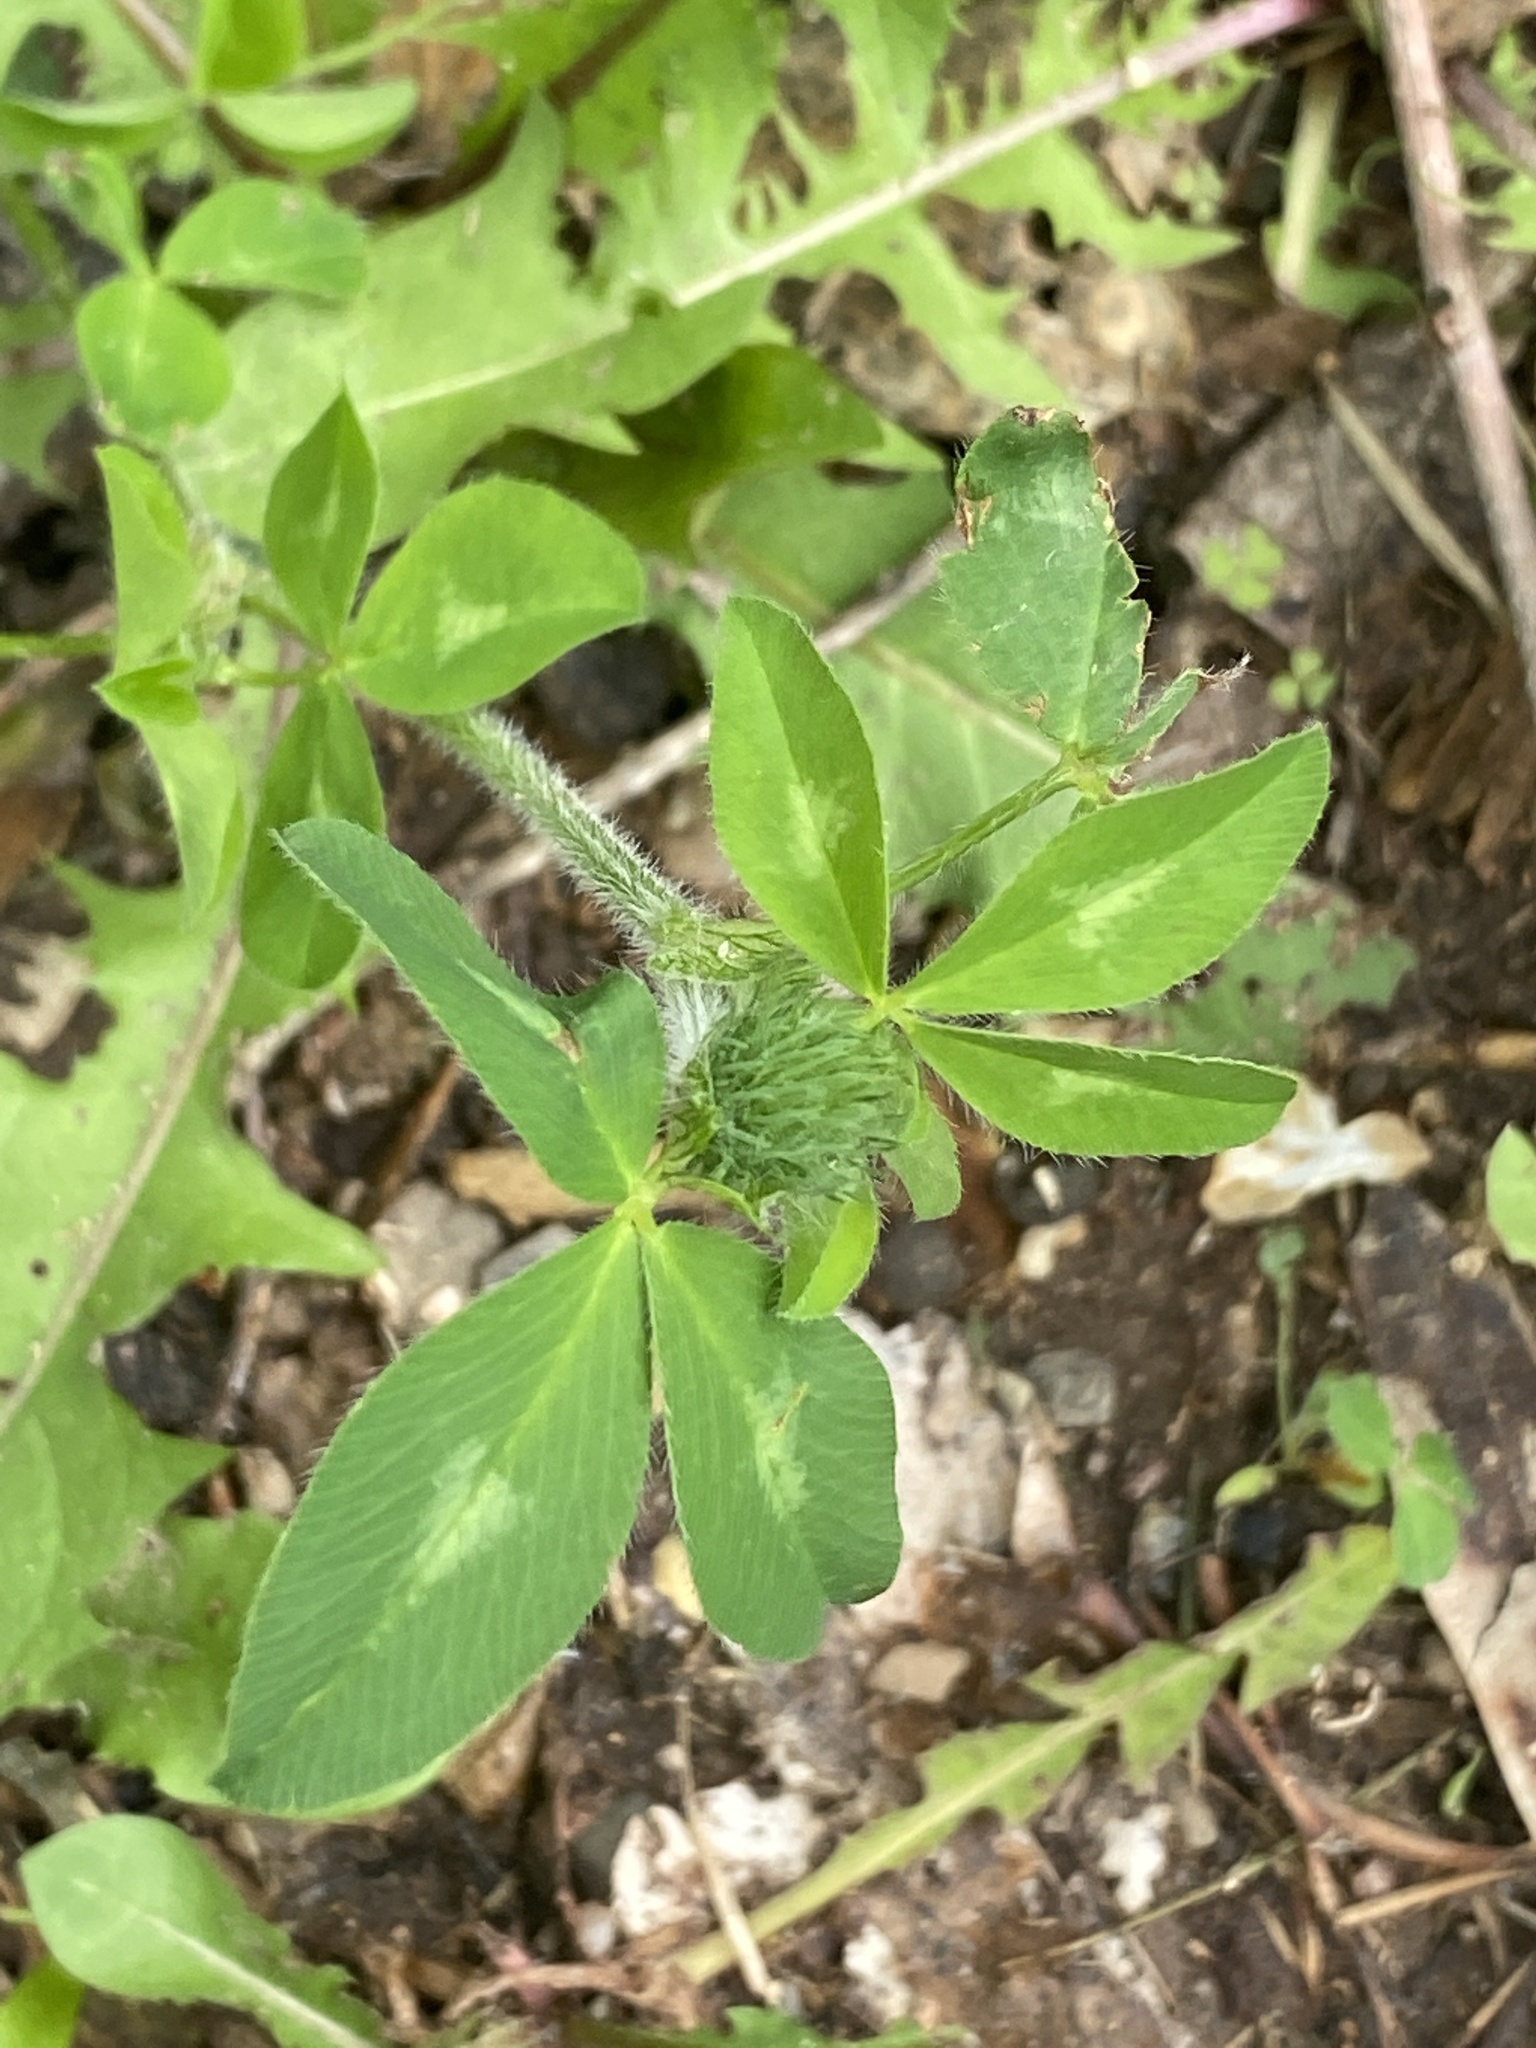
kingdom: Plantae
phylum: Tracheophyta
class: Magnoliopsida
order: Fabales
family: Fabaceae
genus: Trifolium
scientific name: Trifolium pratense
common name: Red clover
